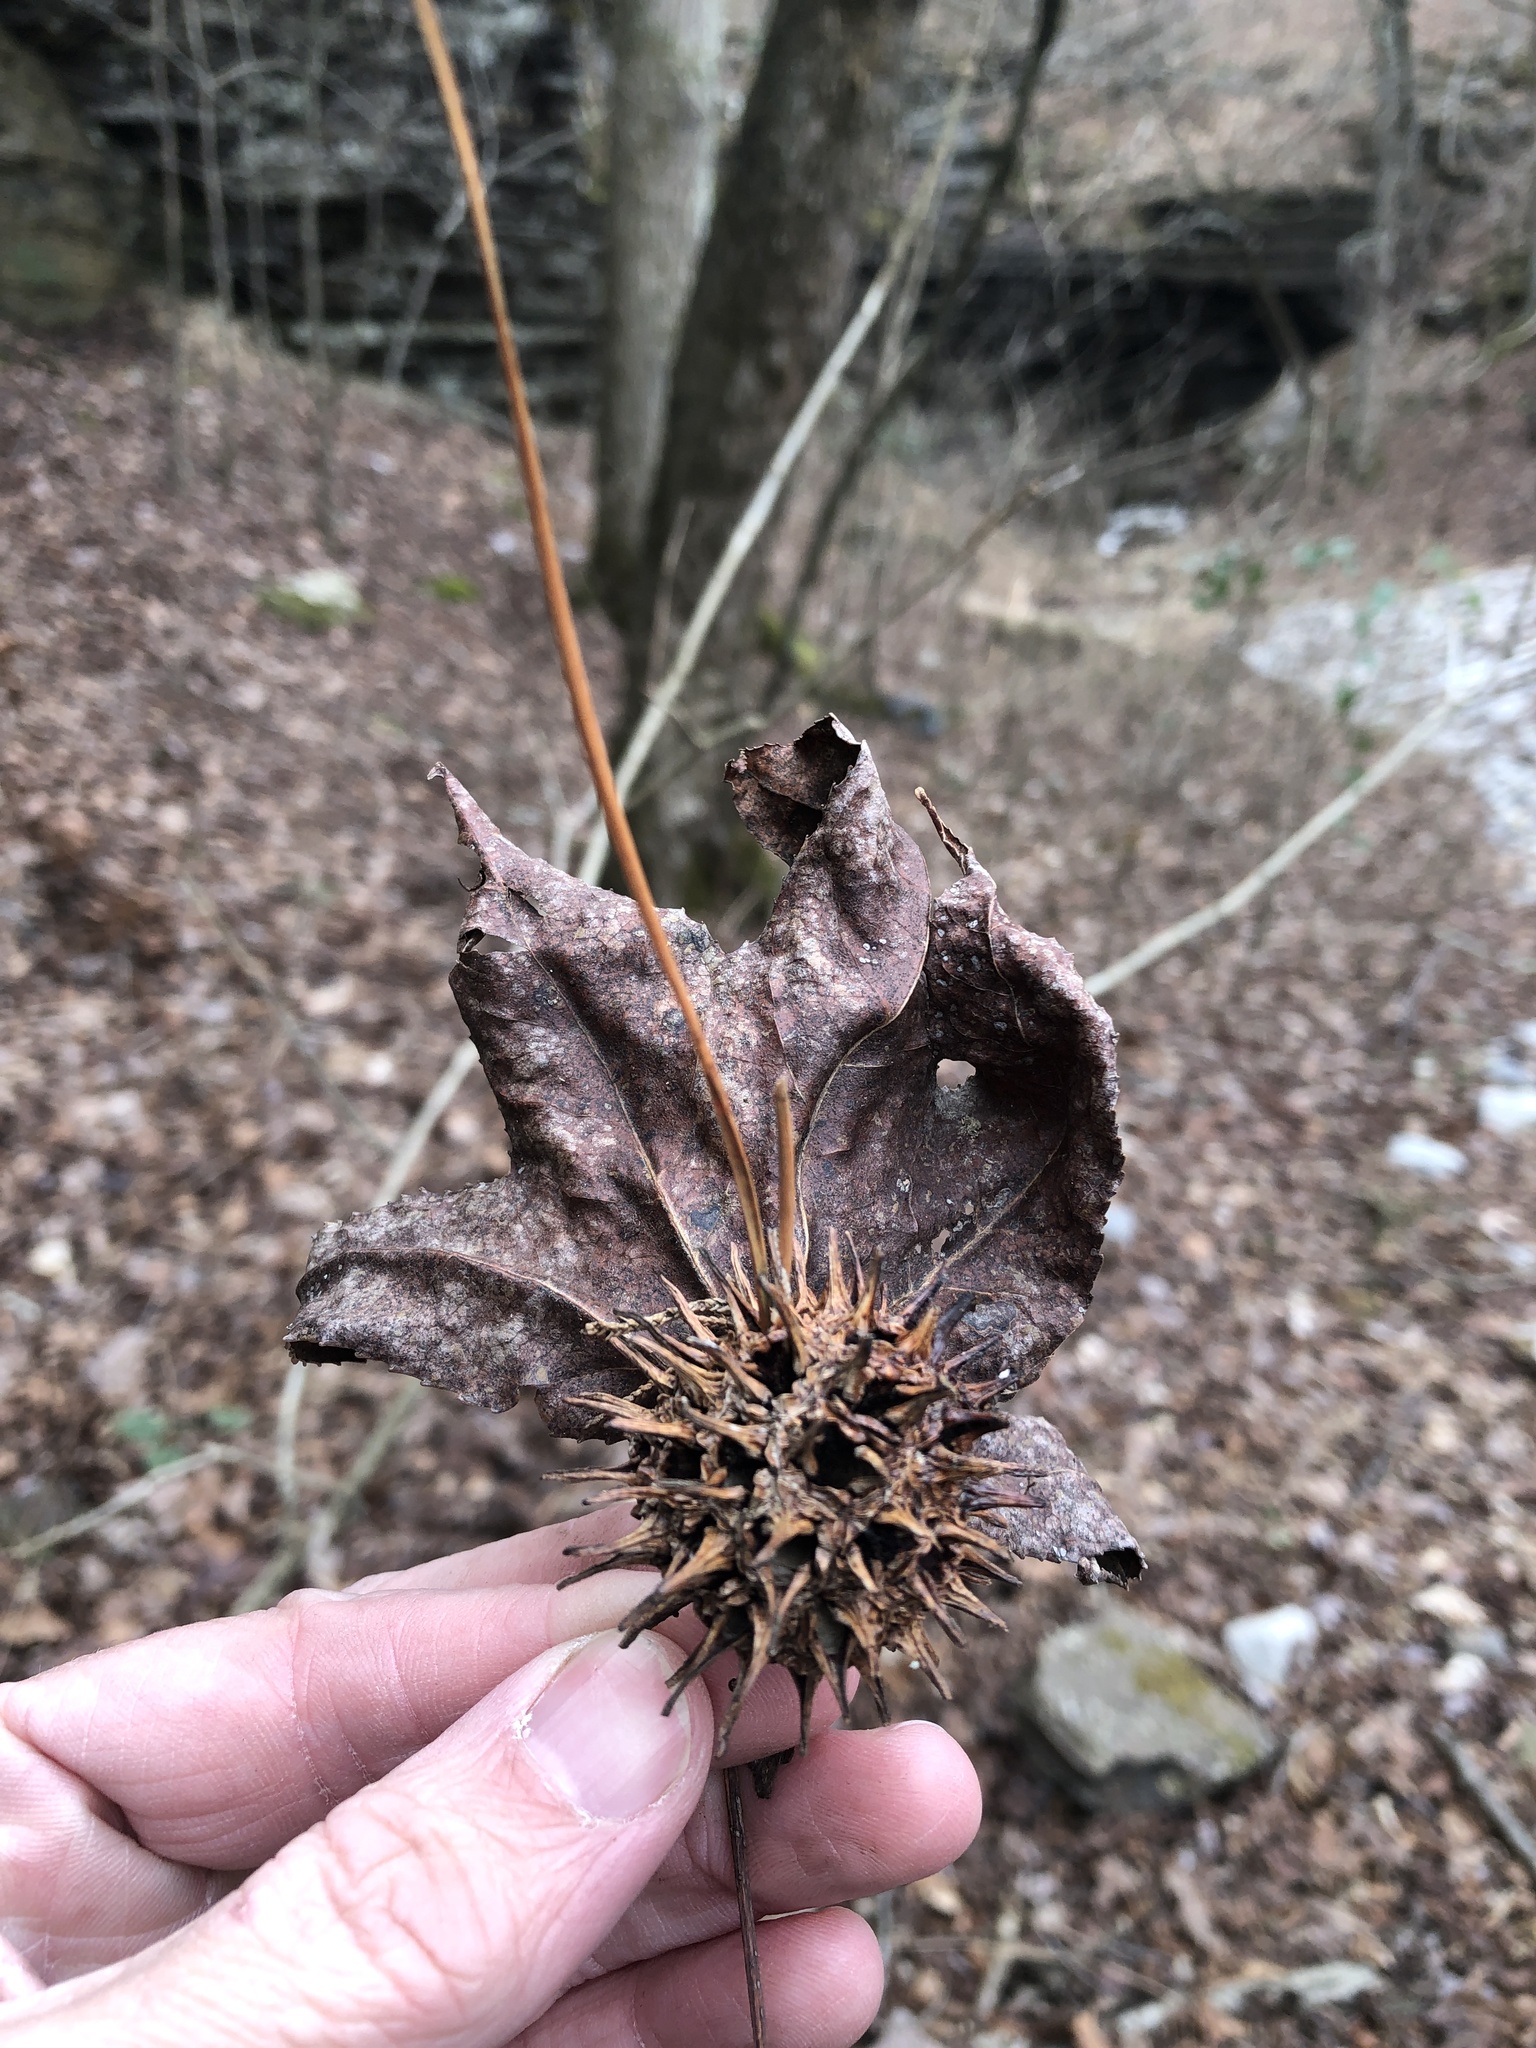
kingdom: Plantae
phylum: Tracheophyta
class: Magnoliopsida
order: Saxifragales
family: Altingiaceae
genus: Liquidambar
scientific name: Liquidambar styraciflua
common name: Sweet gum
